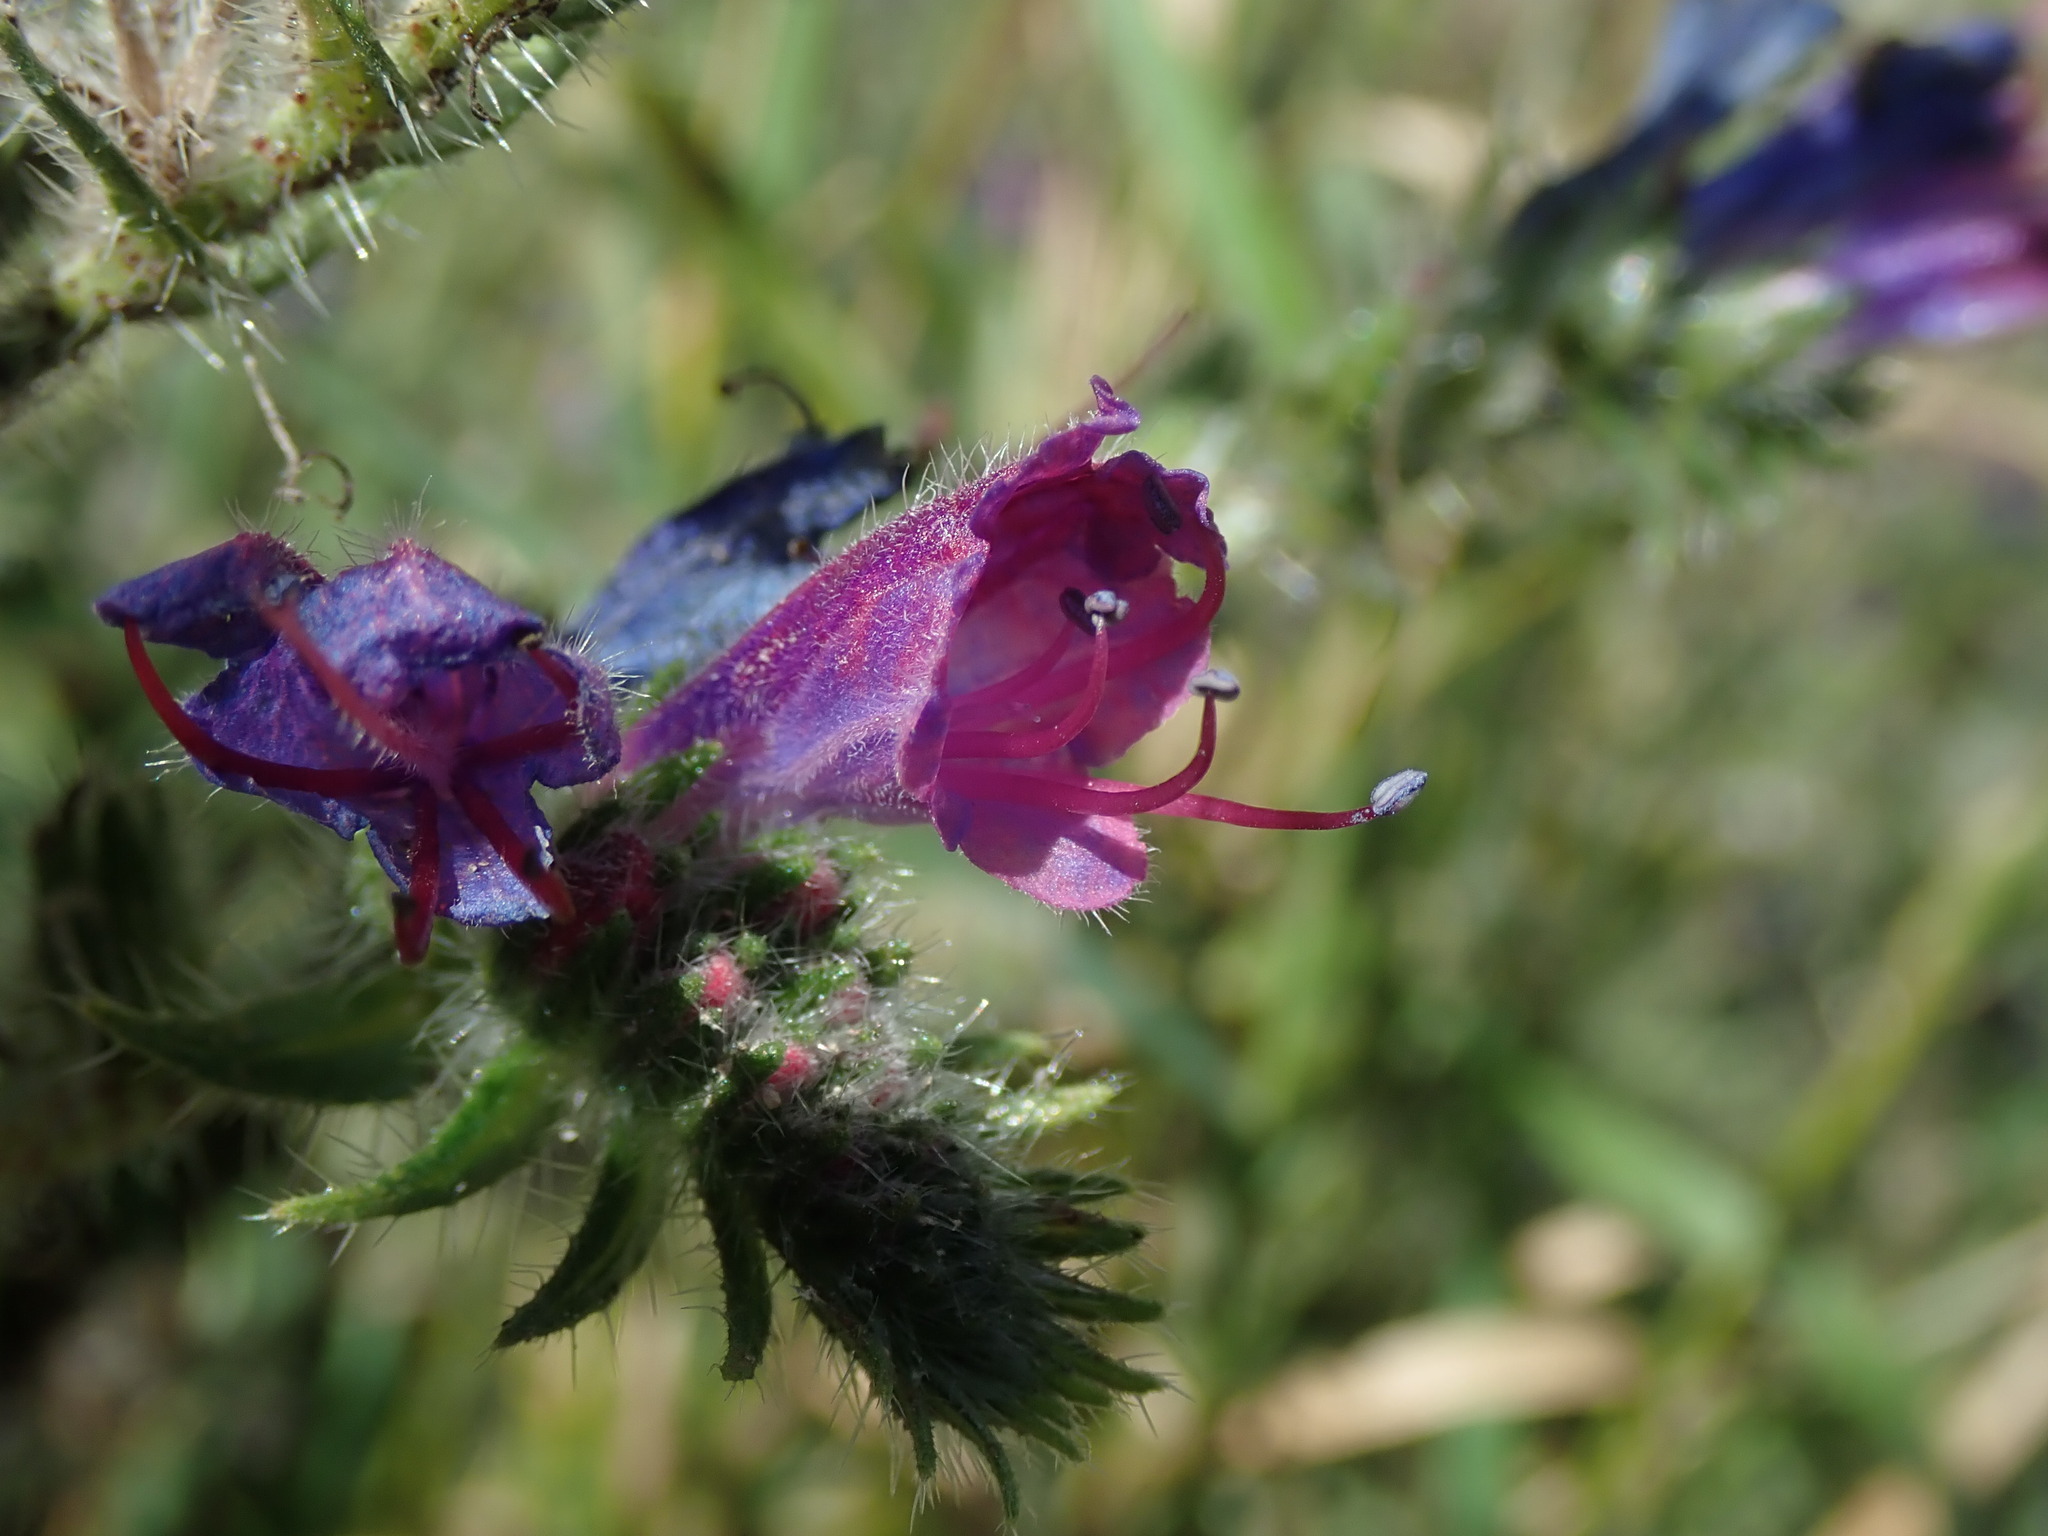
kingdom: Plantae
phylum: Tracheophyta
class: Magnoliopsida
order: Boraginales
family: Boraginaceae
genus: Echium
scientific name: Echium vulgare
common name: Common viper's bugloss
